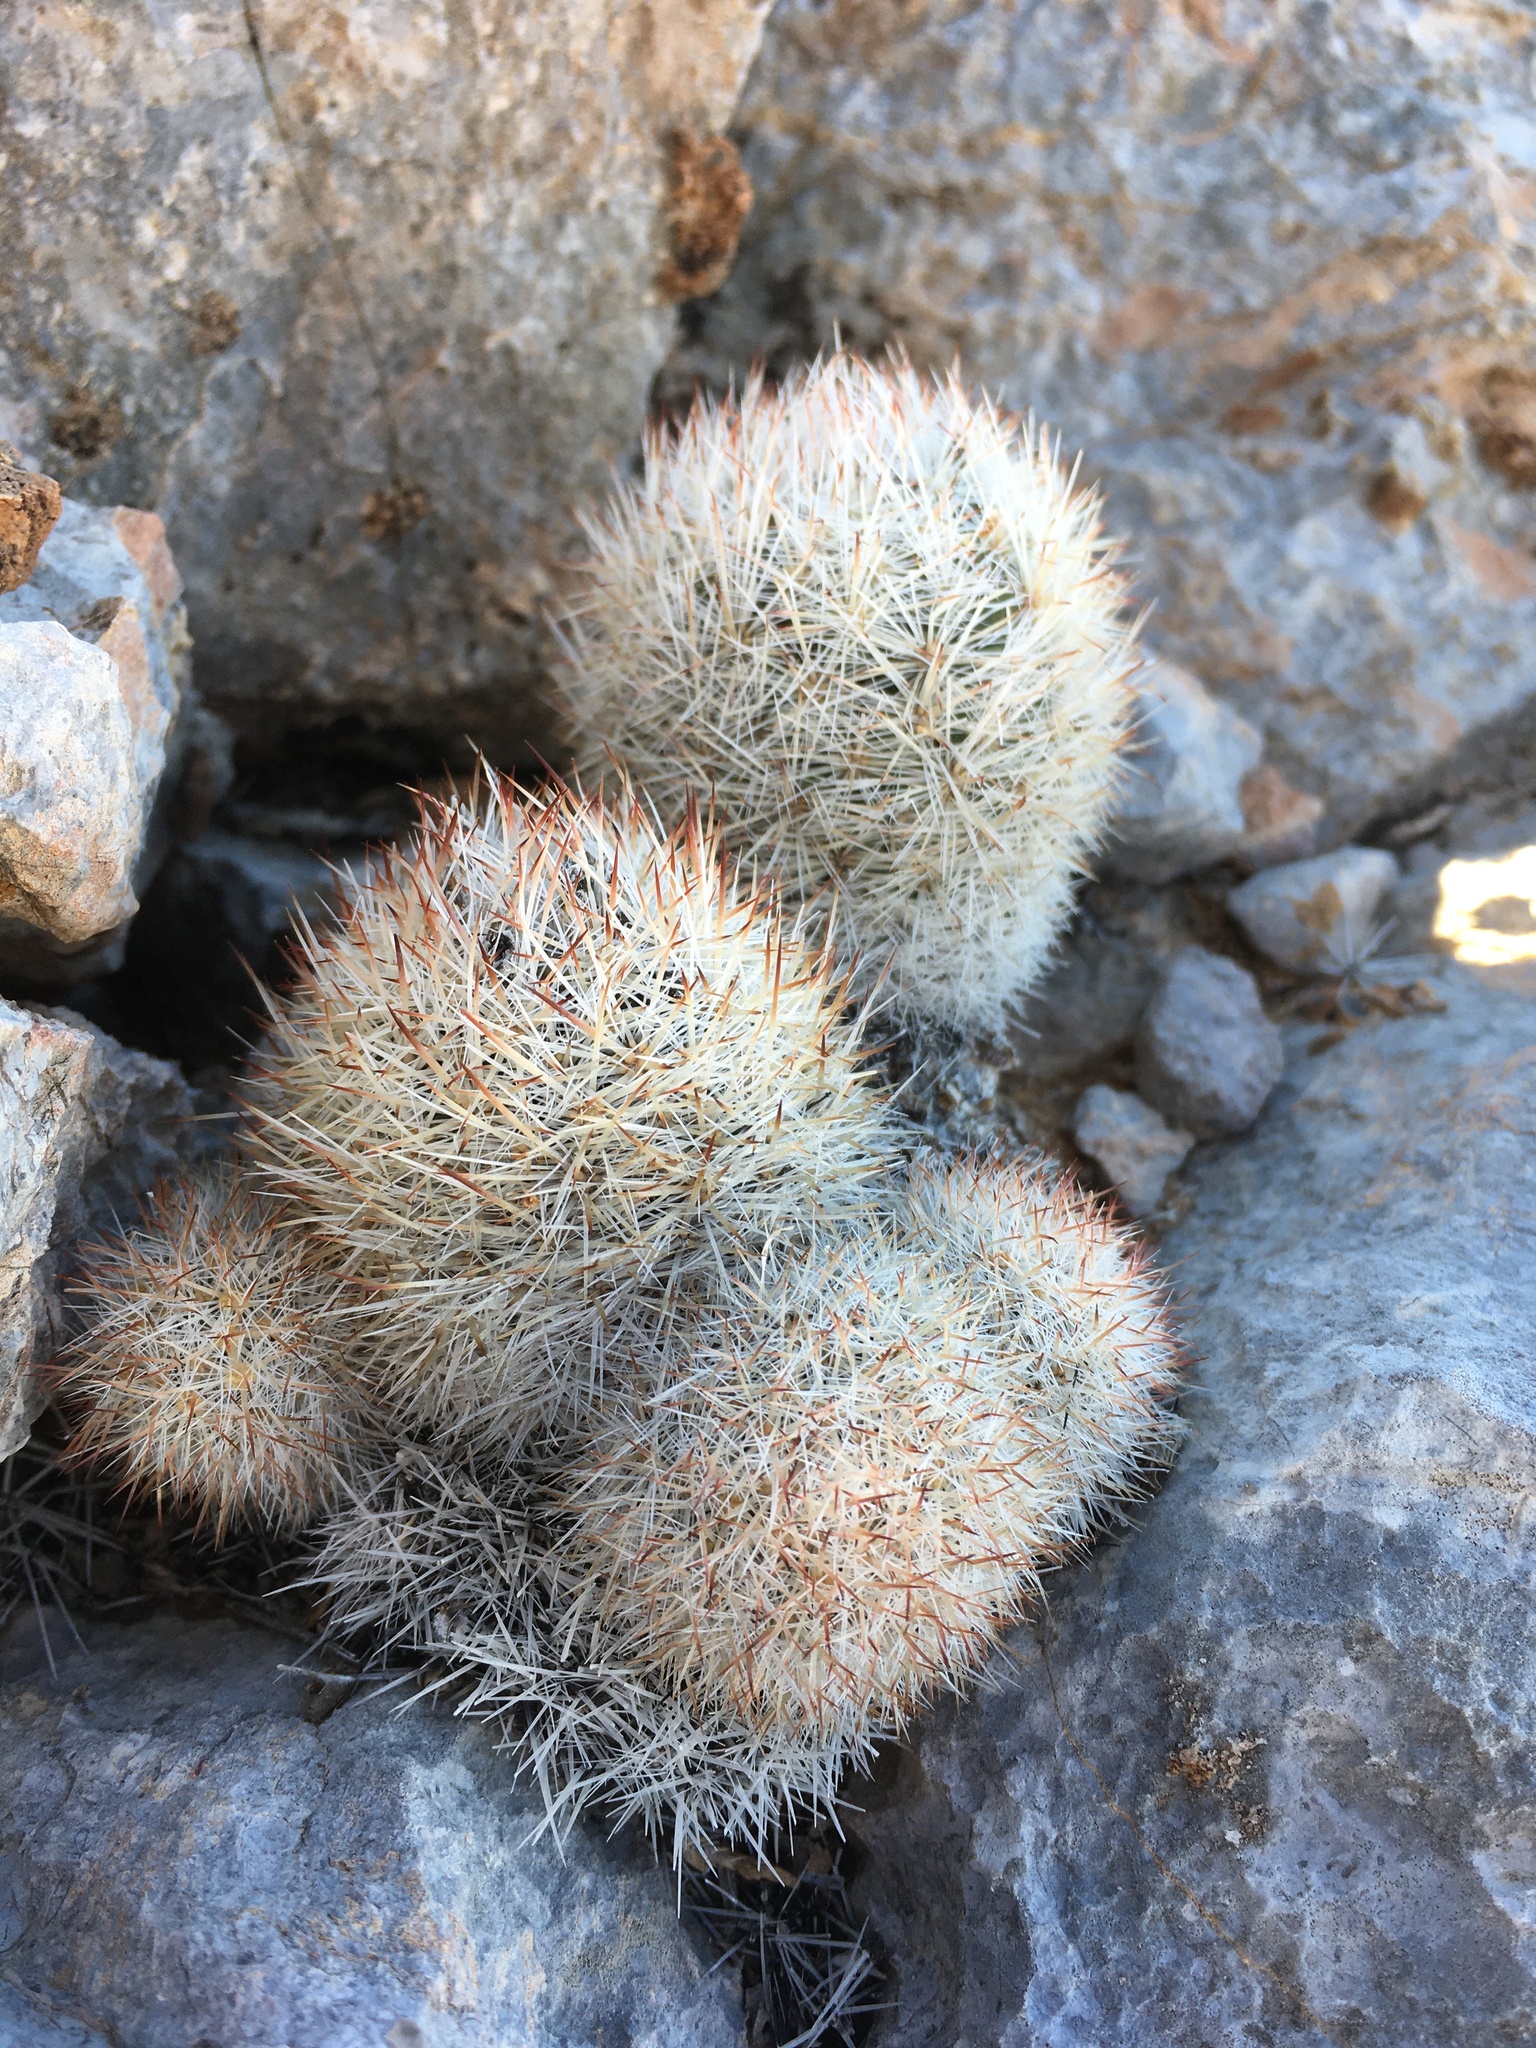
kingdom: Plantae
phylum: Tracheophyta
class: Magnoliopsida
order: Caryophyllales
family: Cactaceae
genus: Pelecyphora
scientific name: Pelecyphora sneedii
